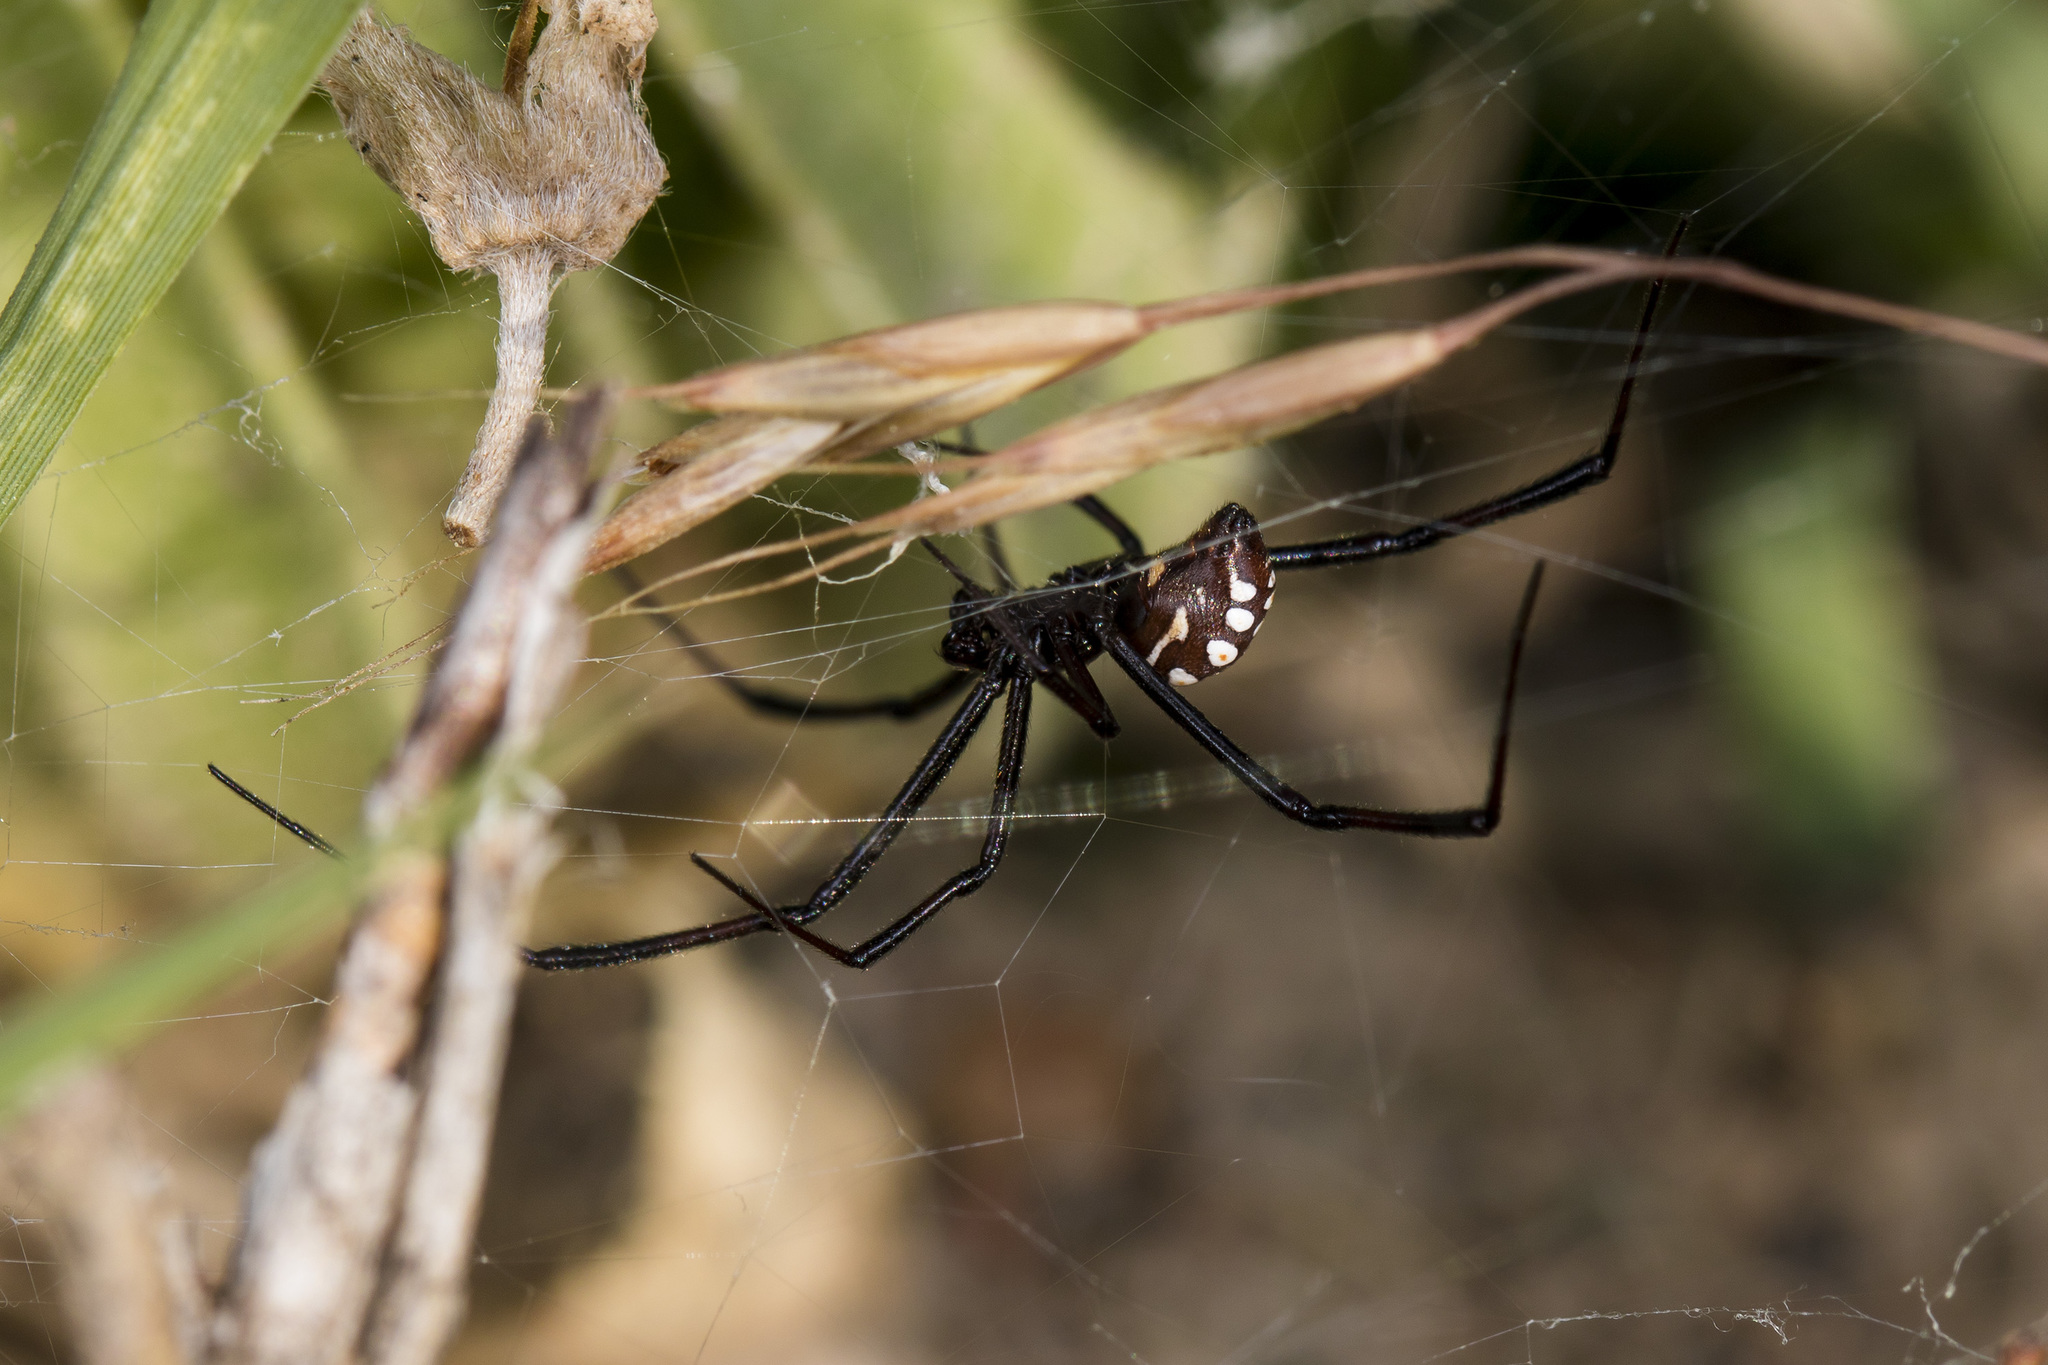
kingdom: Animalia
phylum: Arthropoda
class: Arachnida
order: Araneae
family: Theridiidae
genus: Latrodectus
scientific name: Latrodectus tredecimguttatus
